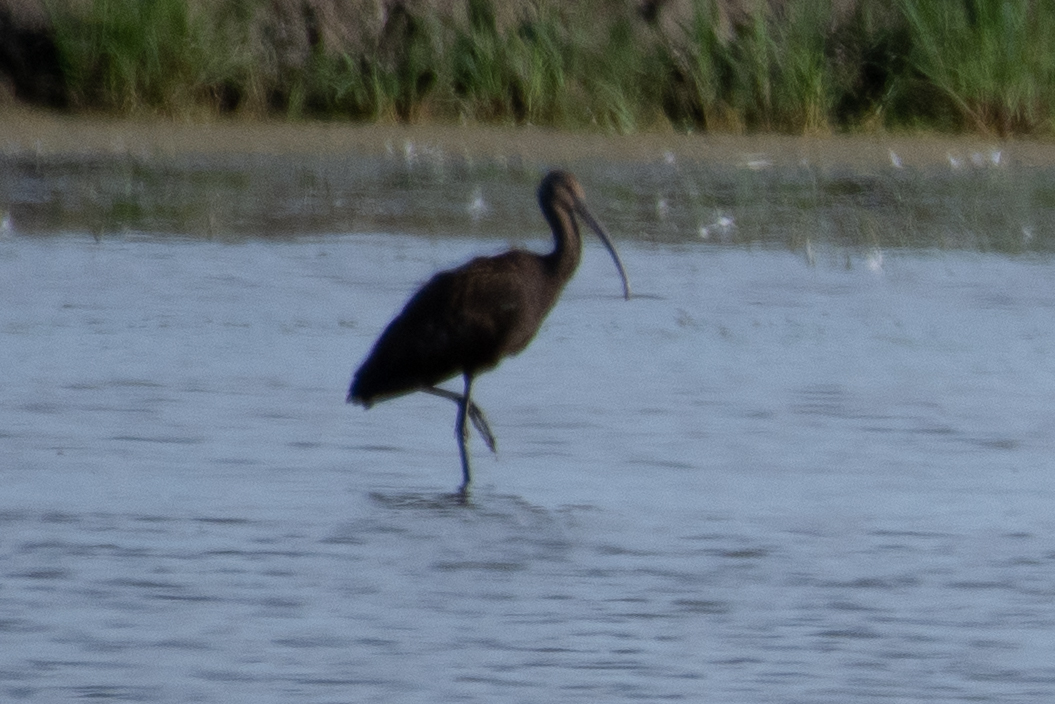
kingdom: Animalia
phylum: Chordata
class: Aves
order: Pelecaniformes
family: Threskiornithidae
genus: Plegadis
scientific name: Plegadis chihi
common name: White-faced ibis
